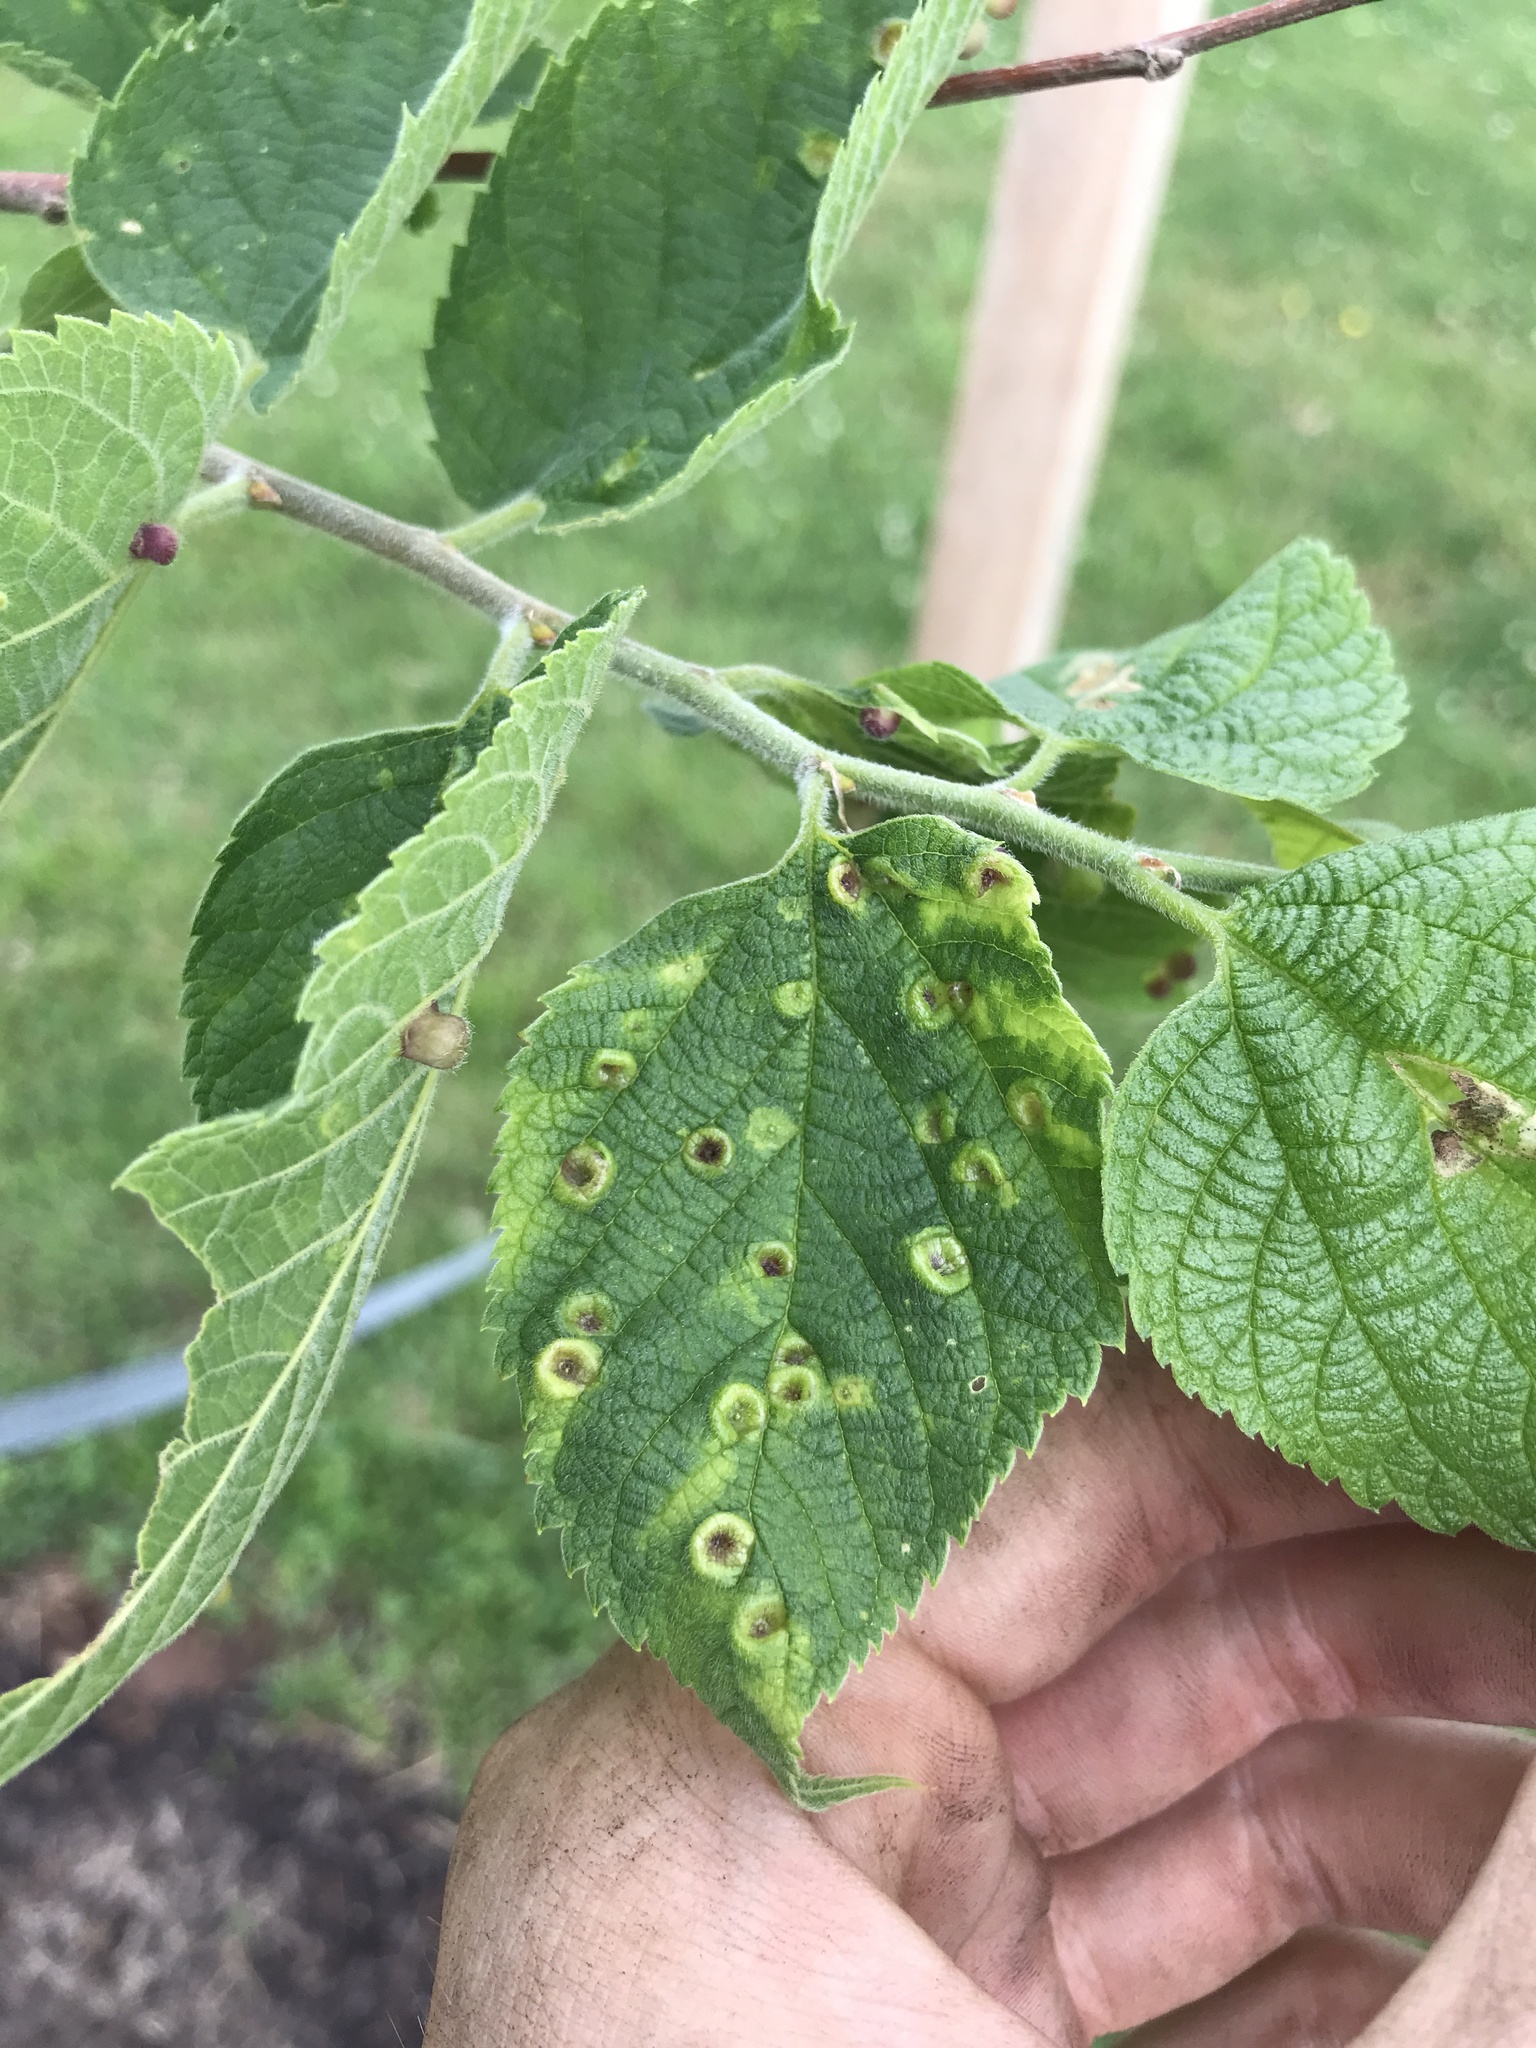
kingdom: Animalia
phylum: Arthropoda
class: Insecta
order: Hemiptera
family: Aphalaridae
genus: Pachypsylla
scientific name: Pachypsylla celtidismamma
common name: Hackberry nipplegall psyllid
